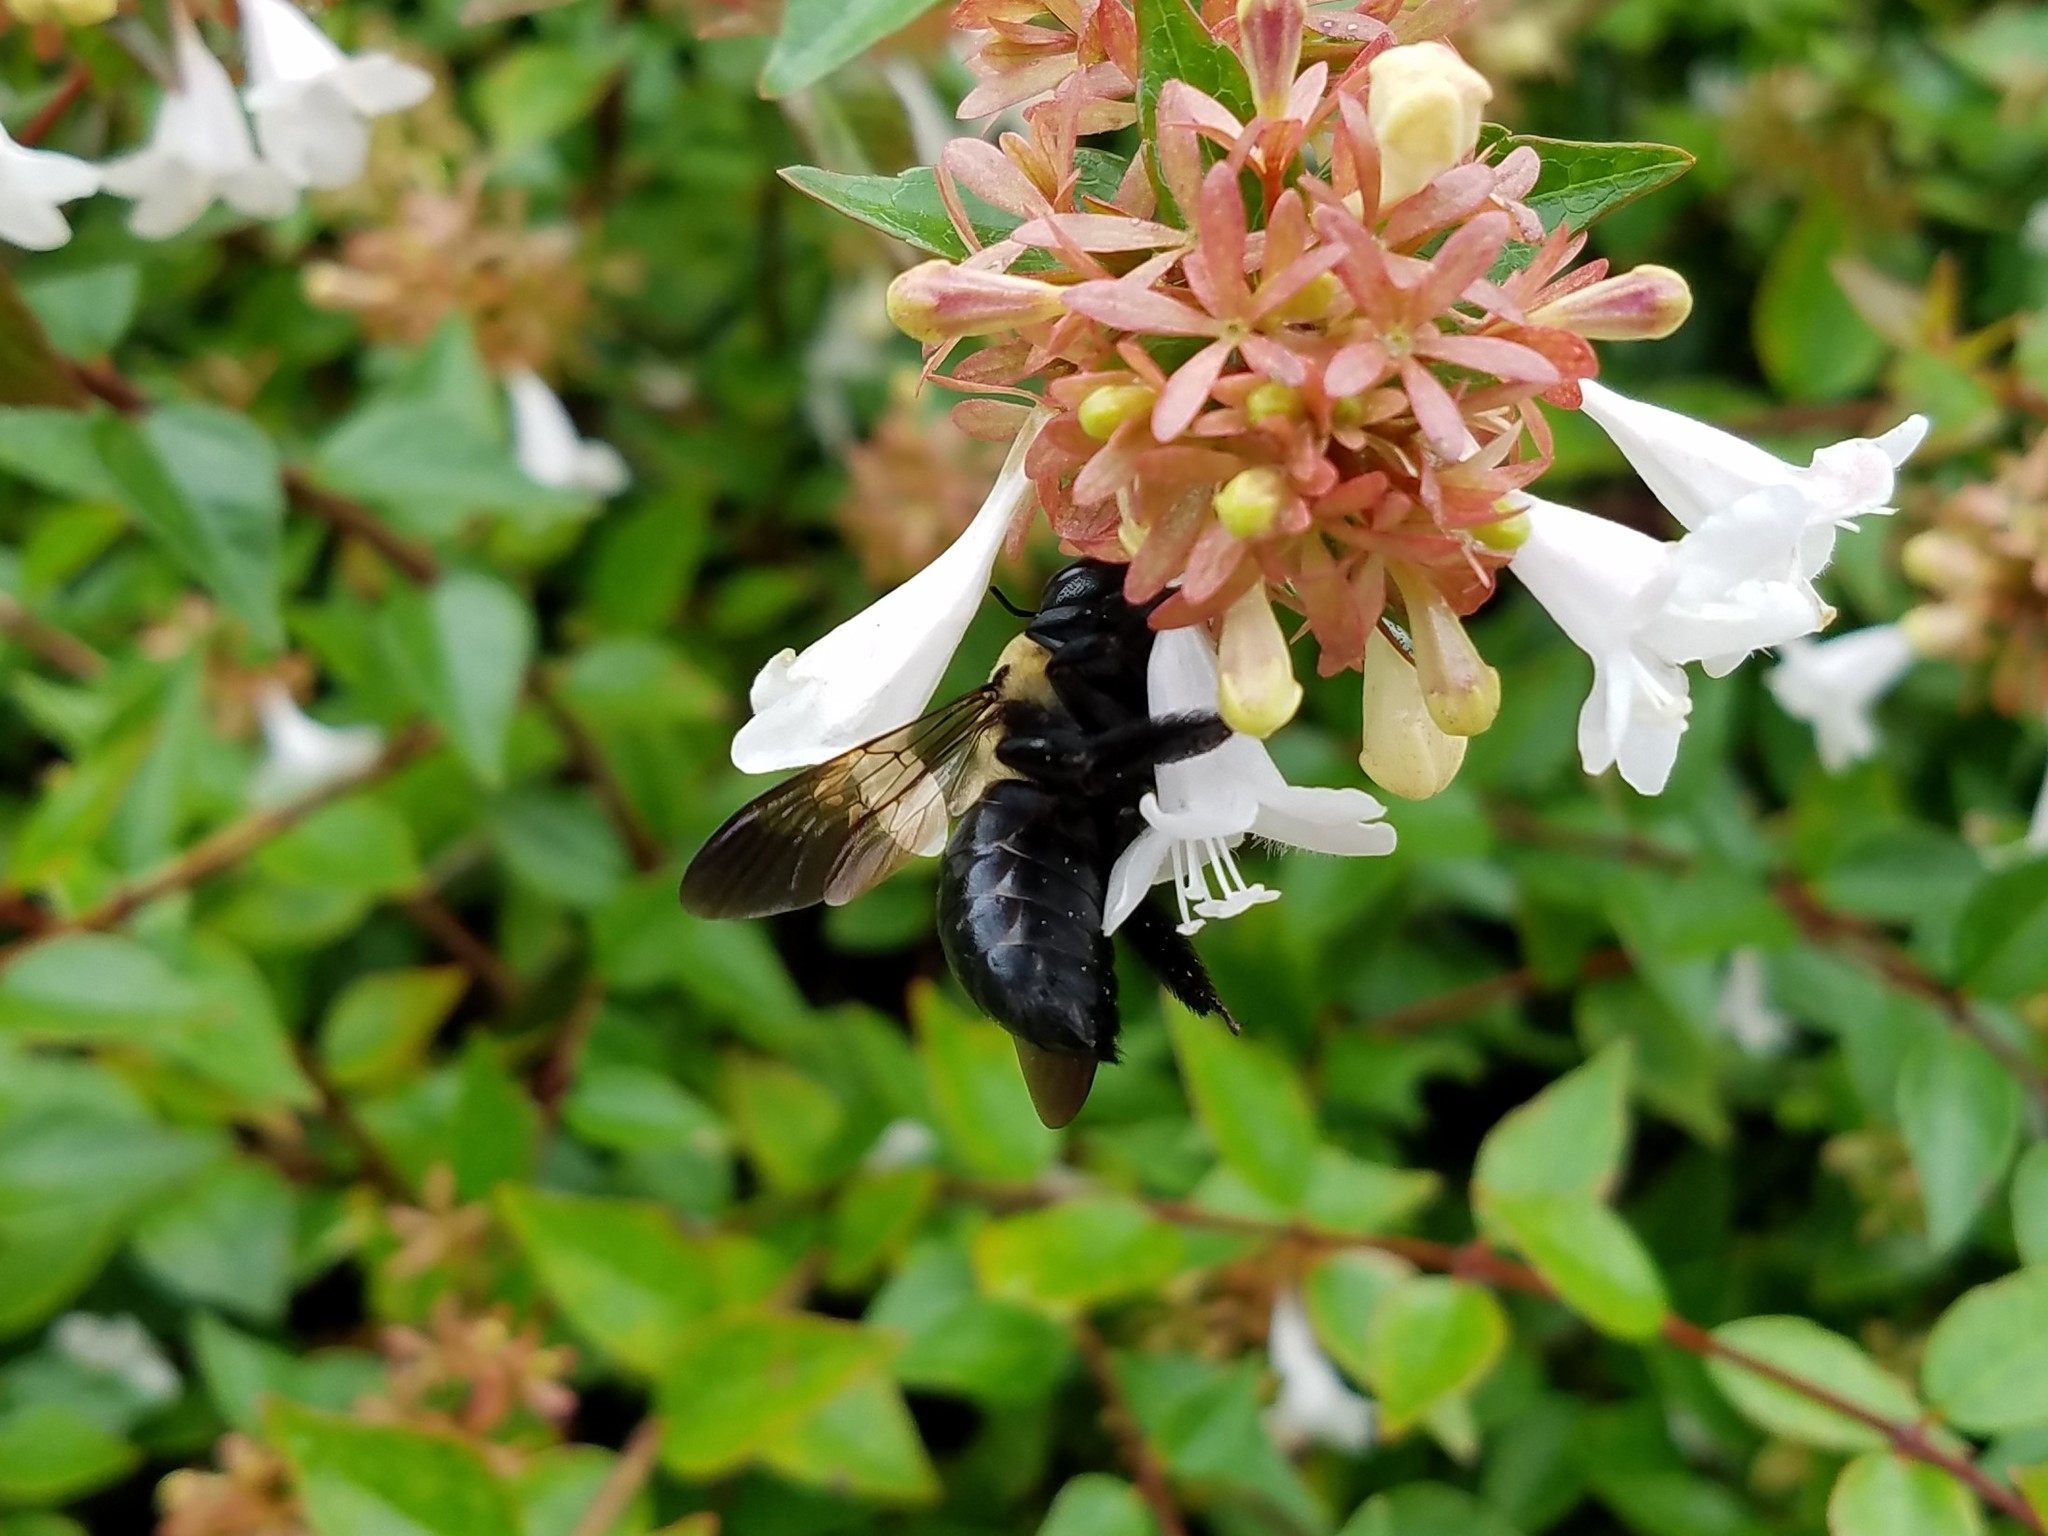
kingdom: Animalia
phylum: Arthropoda
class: Insecta
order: Hymenoptera
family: Apidae
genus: Xylocopa
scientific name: Xylocopa virginica
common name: Carpenter bee
